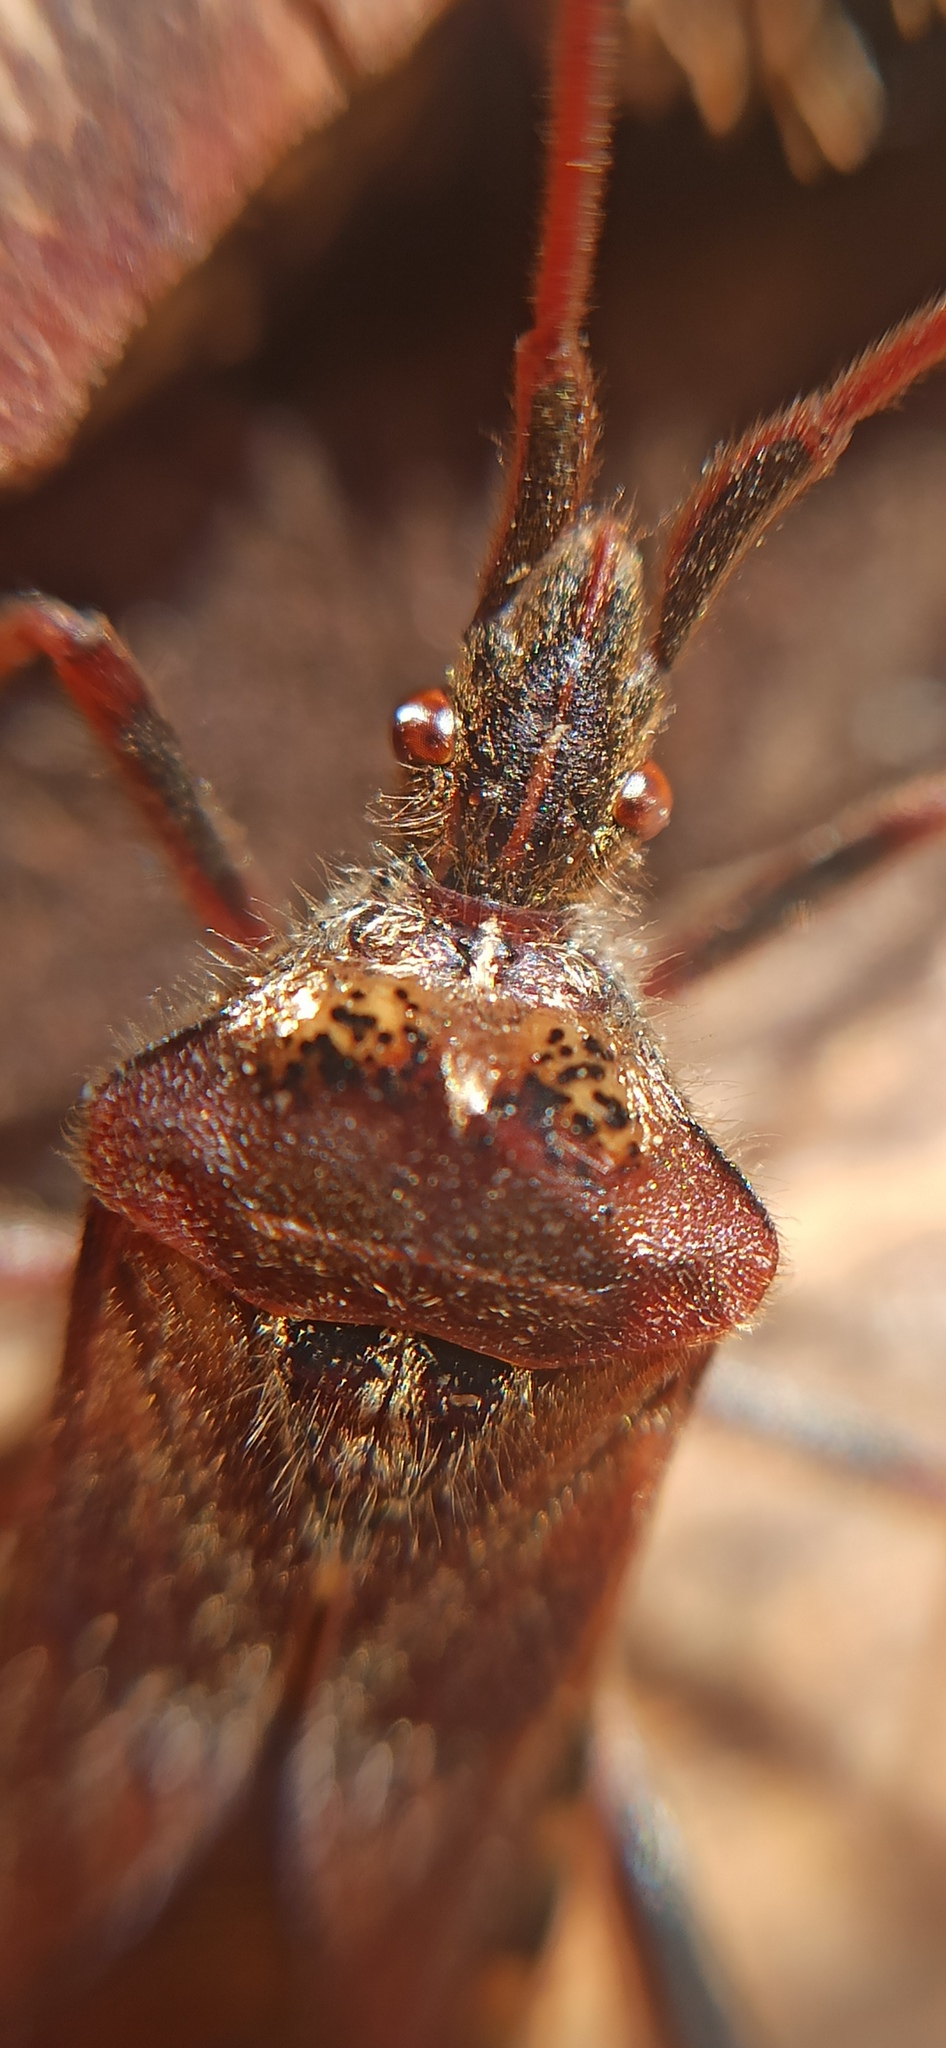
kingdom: Animalia
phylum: Arthropoda
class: Insecta
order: Hemiptera
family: Coreidae
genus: Leptoglossus
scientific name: Leptoglossus occidentalis
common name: Western conifer-seed bug
